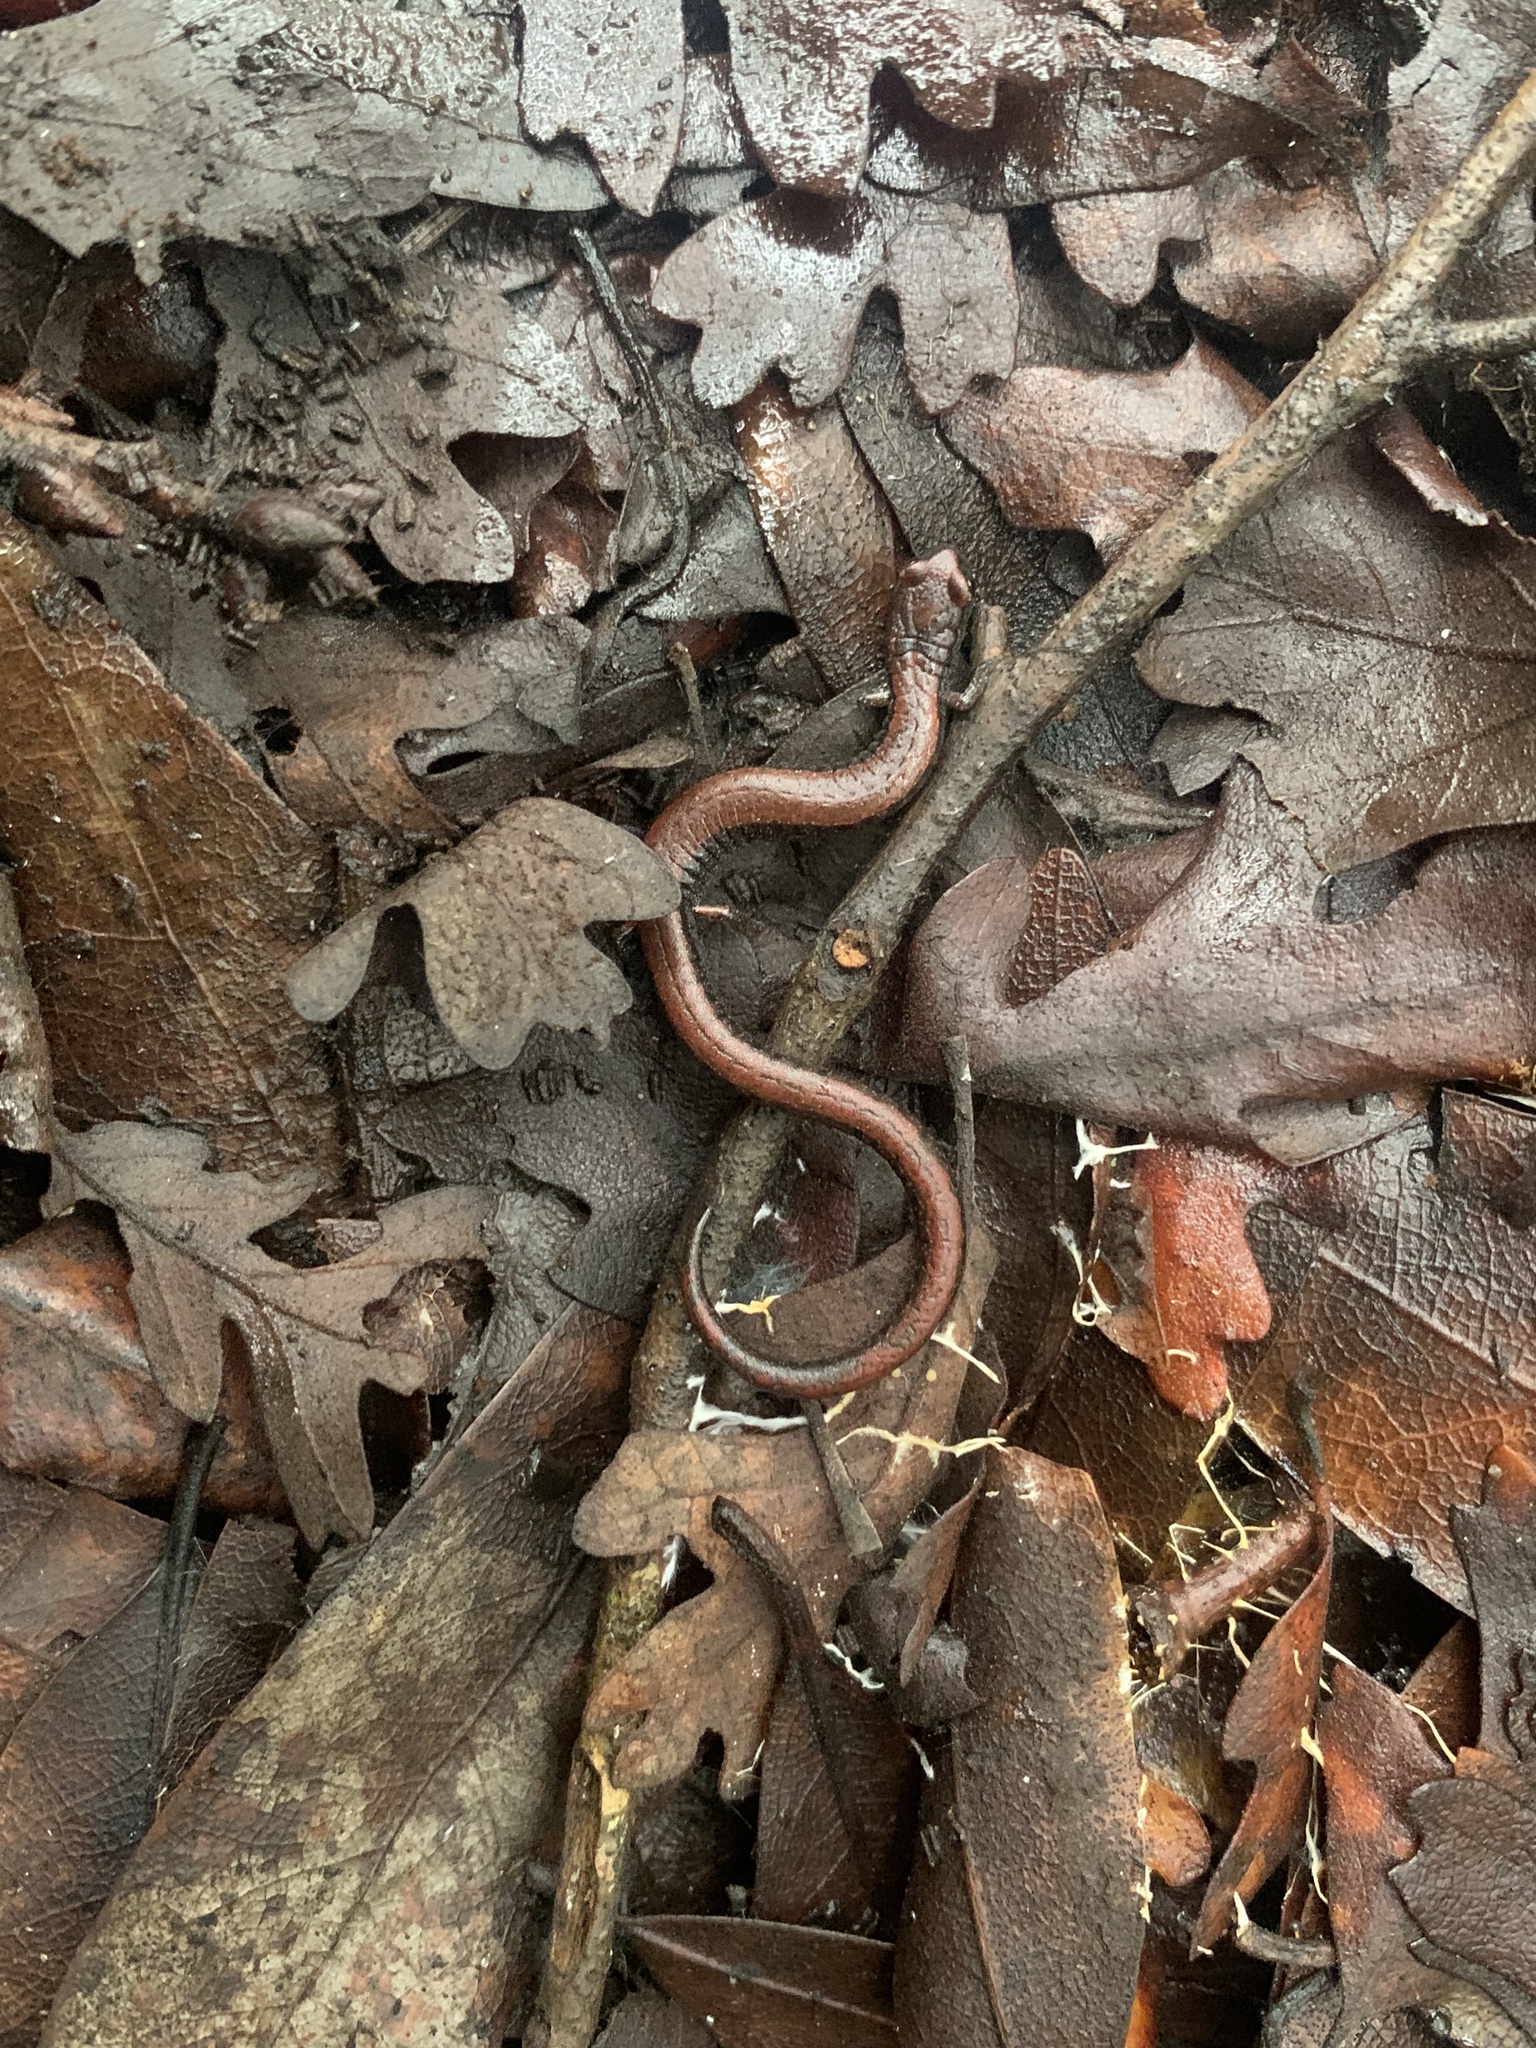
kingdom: Animalia
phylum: Chordata
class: Amphibia
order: Caudata
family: Plethodontidae
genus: Batrachoseps
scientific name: Batrachoseps attenuatus
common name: California slender salamander
